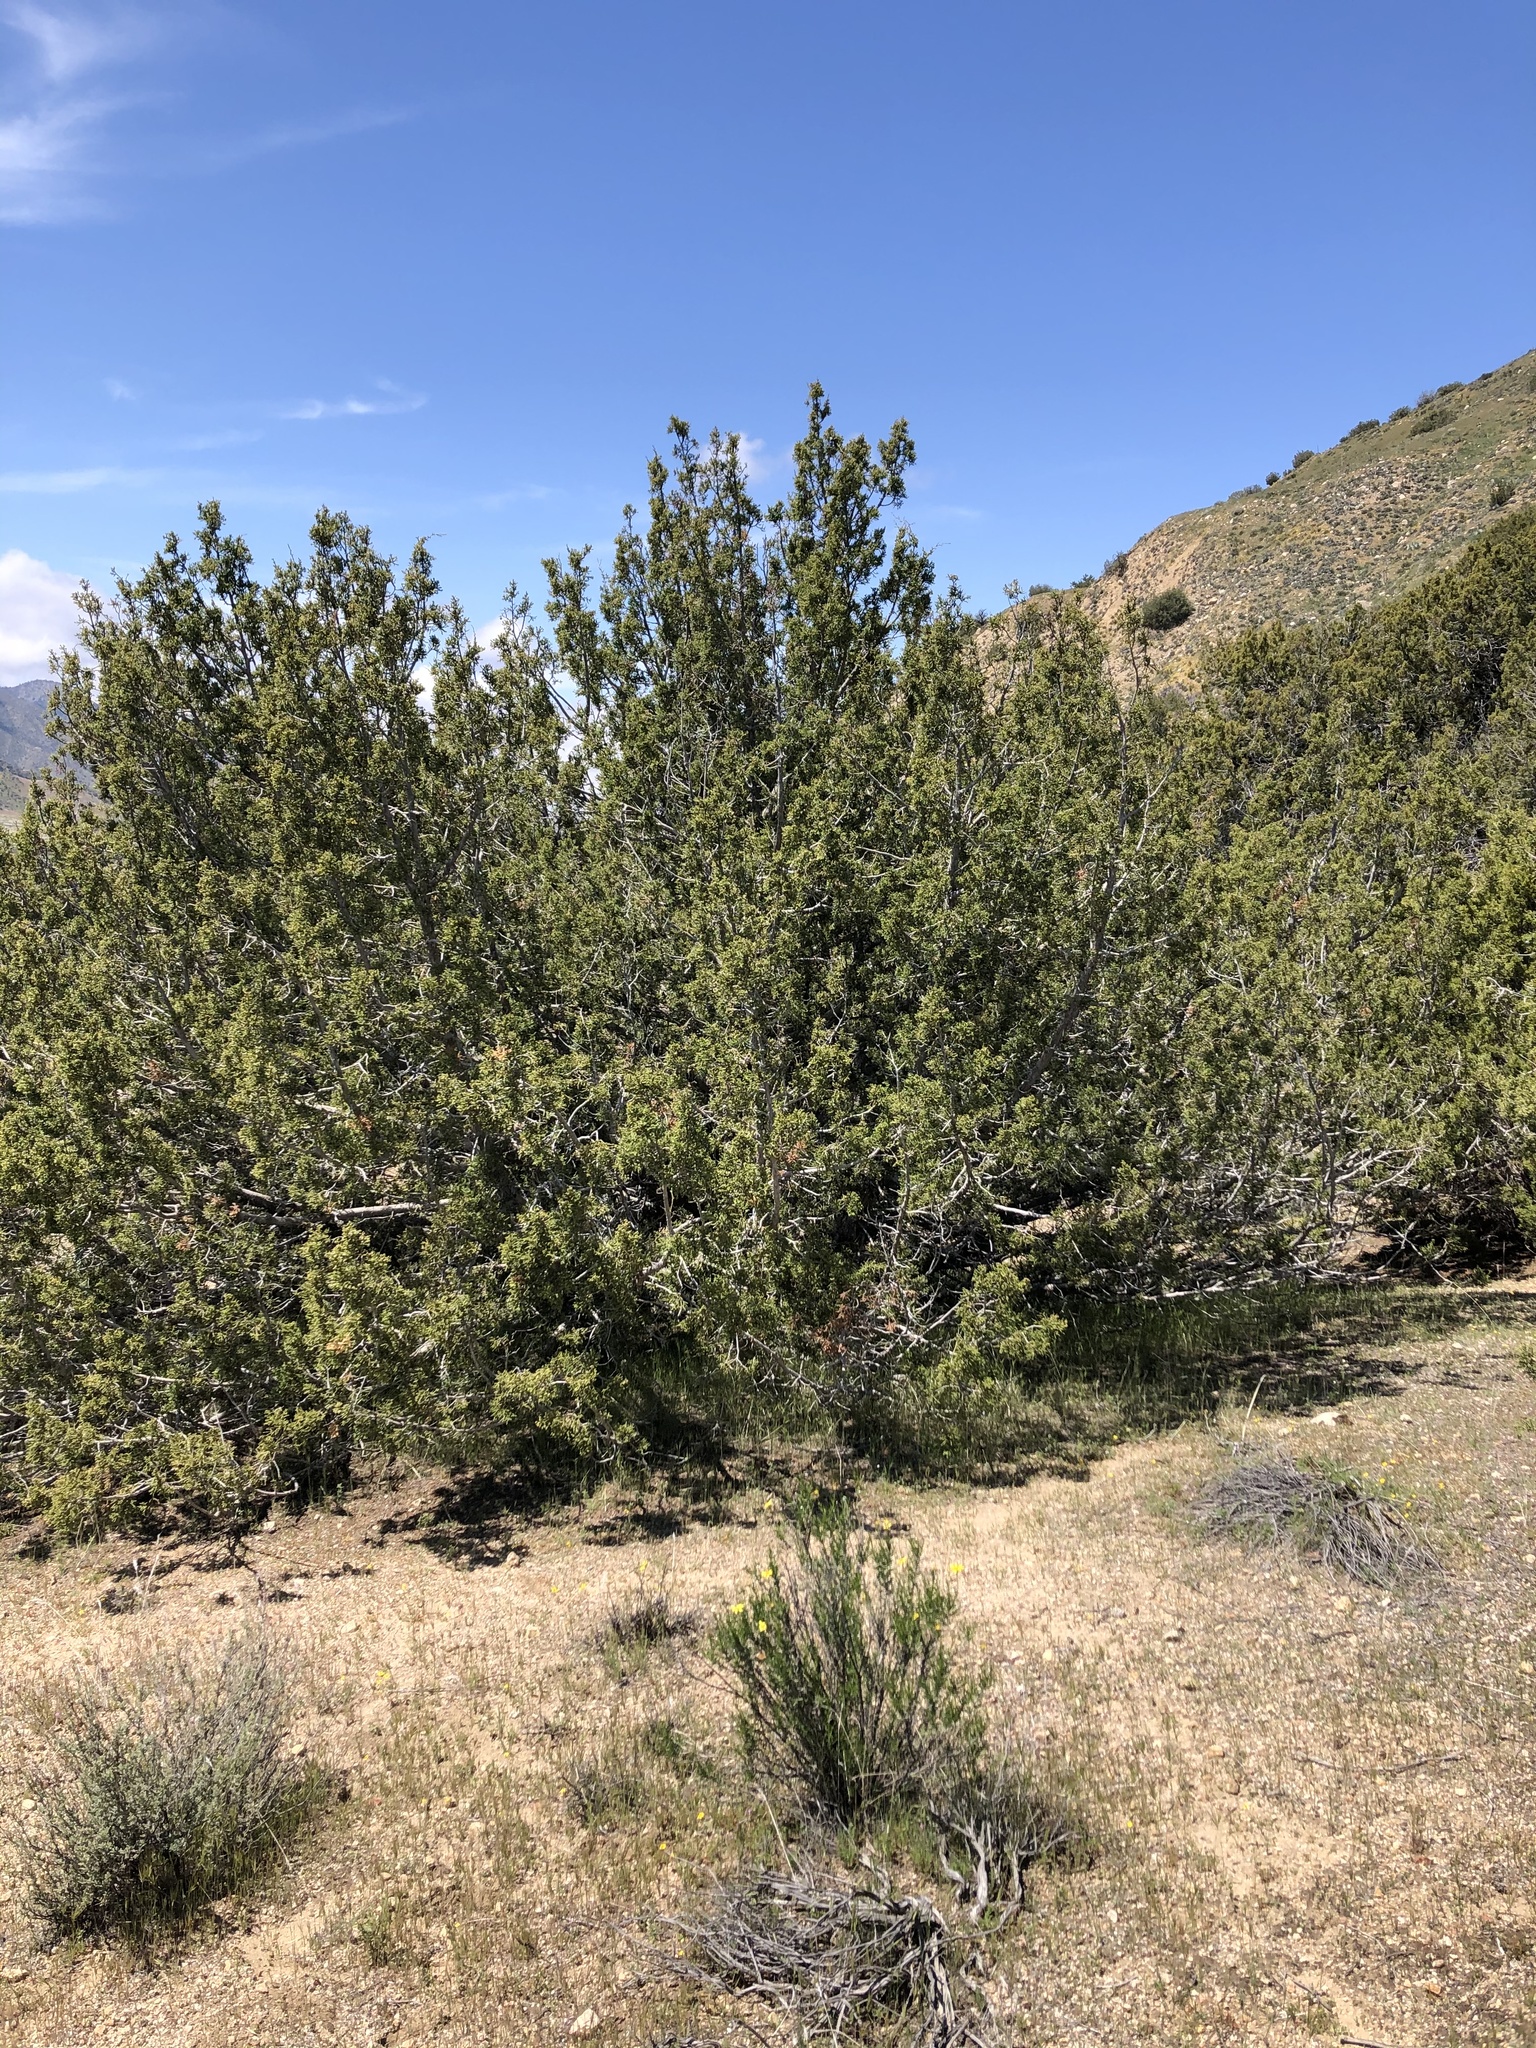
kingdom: Plantae
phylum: Tracheophyta
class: Pinopsida
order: Pinales
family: Cupressaceae
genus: Juniperus
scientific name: Juniperus californica
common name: California juniper
